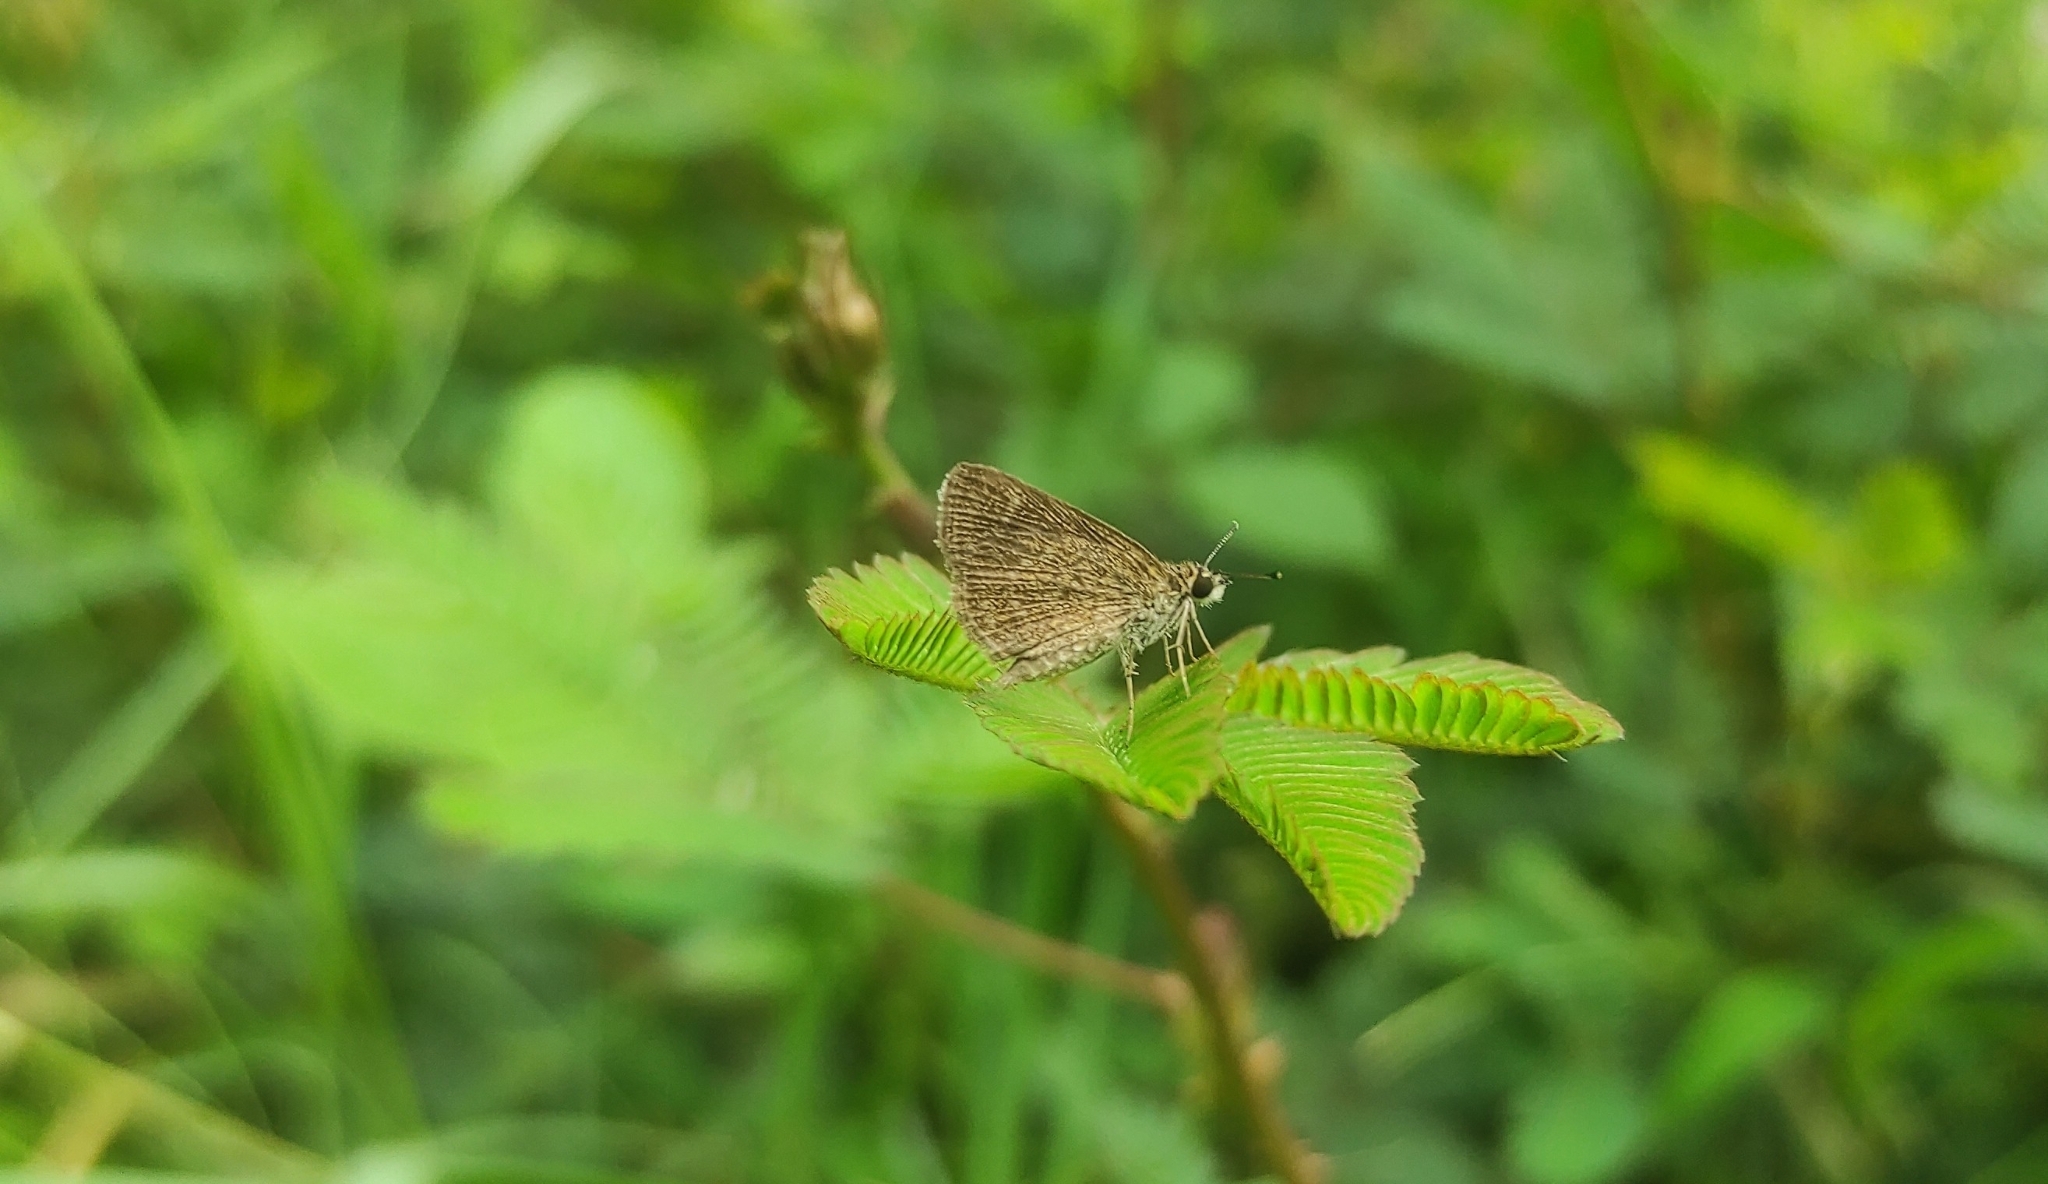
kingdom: Animalia
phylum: Arthropoda
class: Insecta
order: Lepidoptera
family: Hesperiidae
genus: Aeromachus
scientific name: Aeromachus pygmaeus
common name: Pygmy scrub hopper
